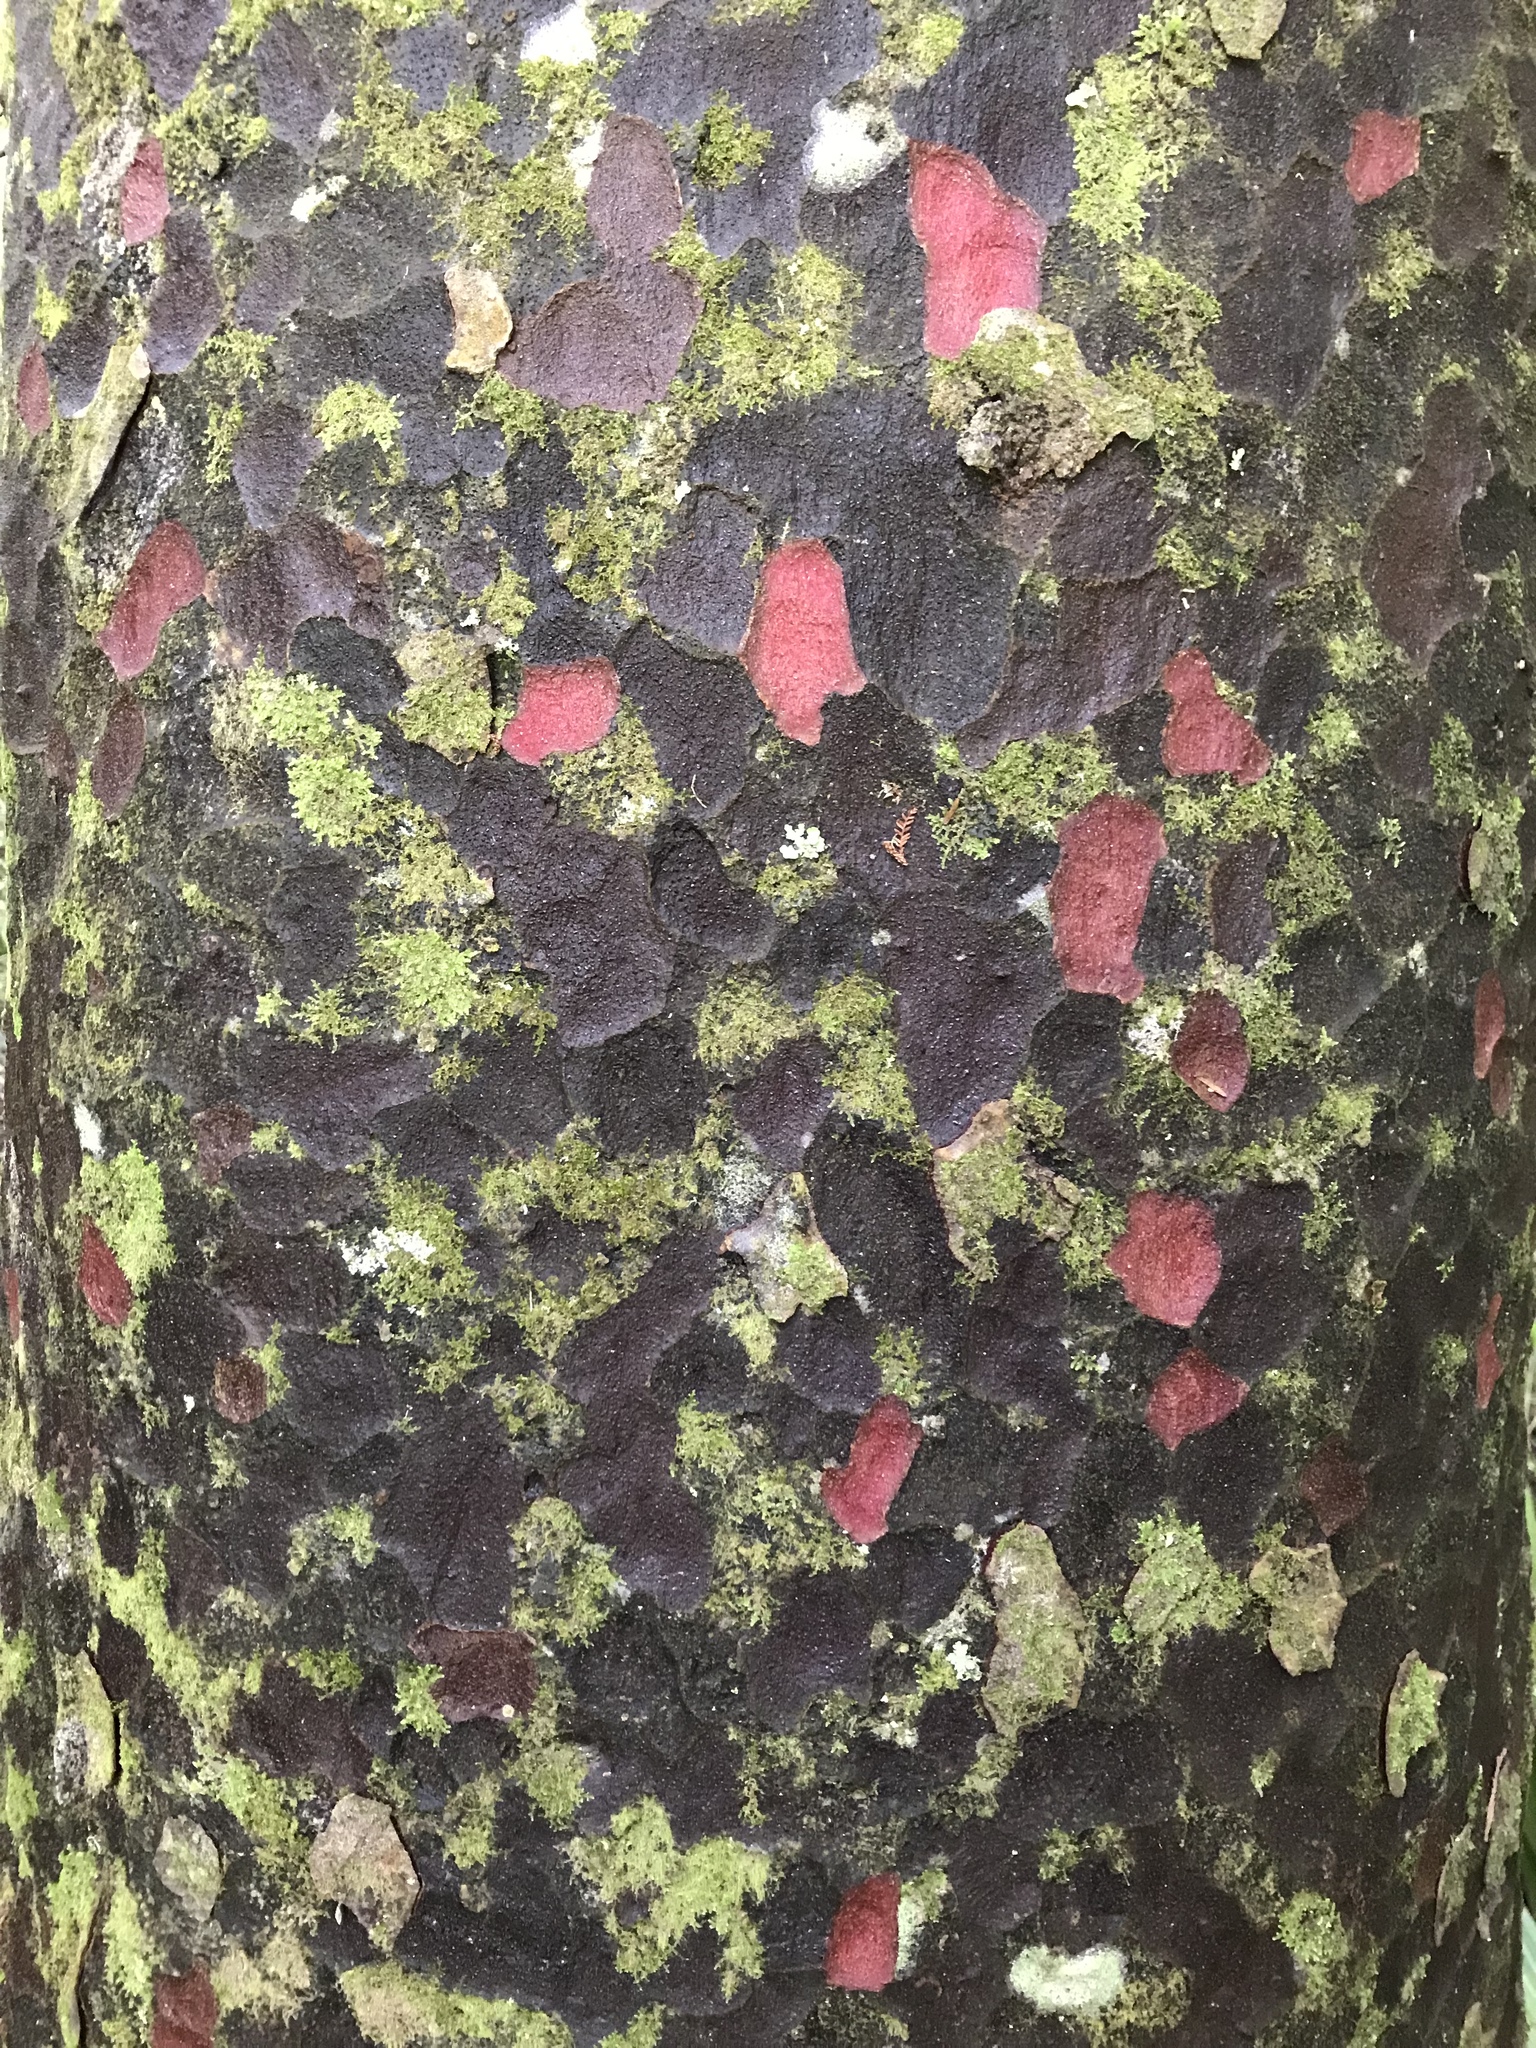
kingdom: Plantae
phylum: Tracheophyta
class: Pinopsida
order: Pinales
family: Podocarpaceae
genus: Prumnopitys
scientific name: Prumnopitys taxifolia
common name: Matai
